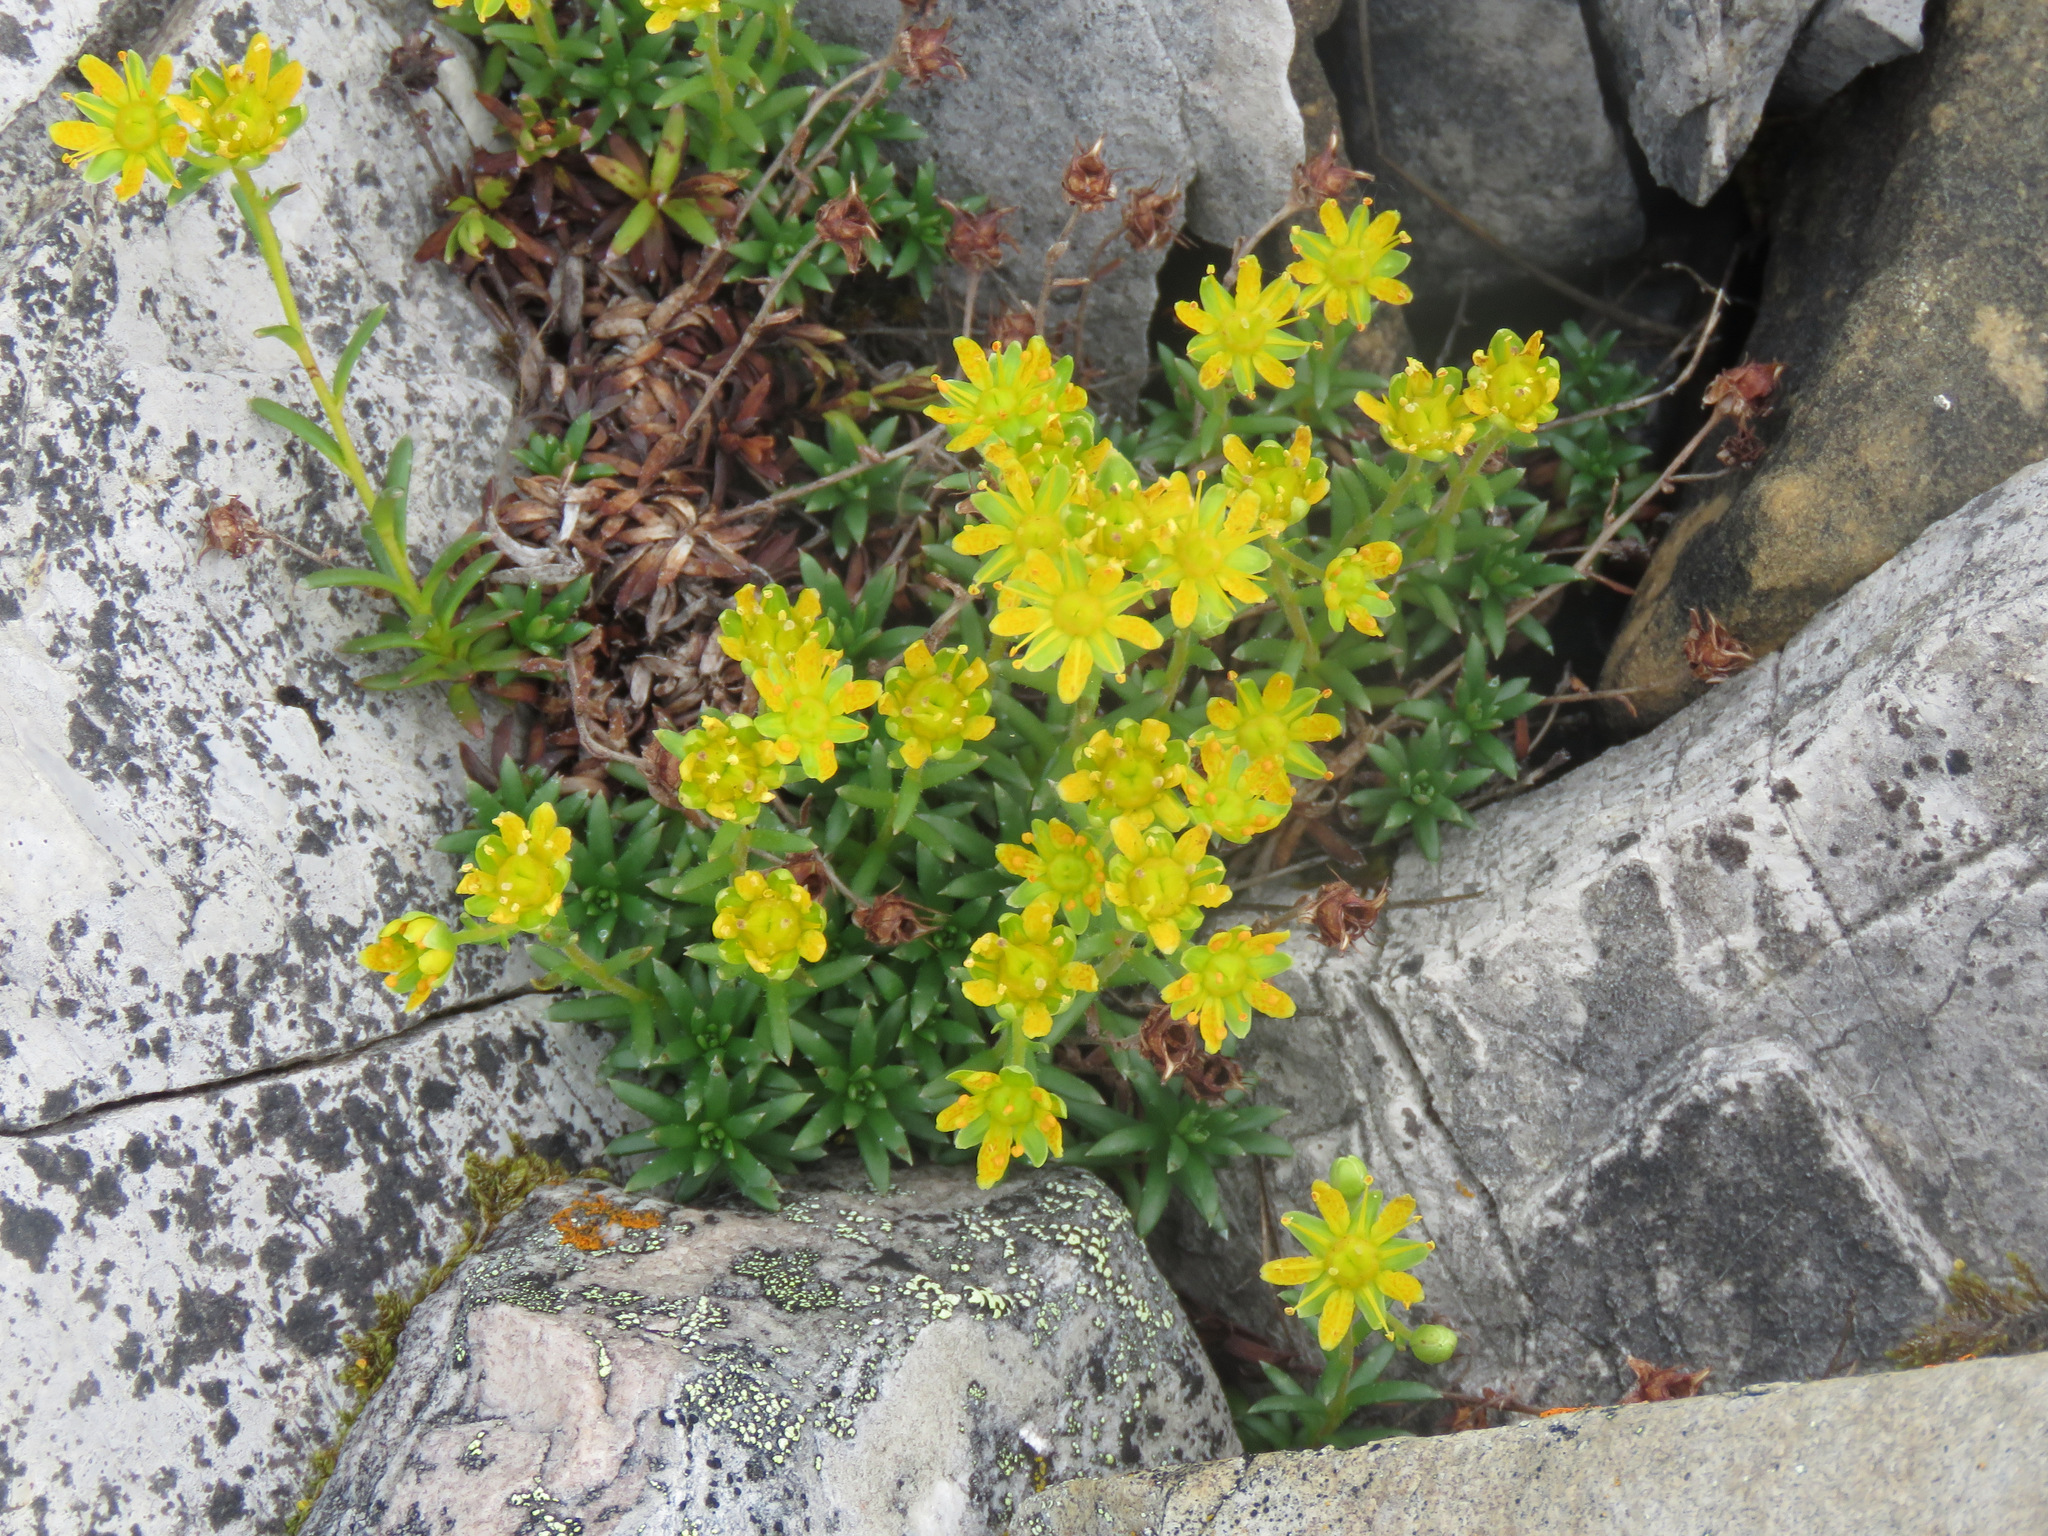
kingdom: Plantae
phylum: Tracheophyta
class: Magnoliopsida
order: Saxifragales
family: Saxifragaceae
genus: Saxifraga
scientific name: Saxifraga aizoides
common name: Yellow mountain saxifrage
